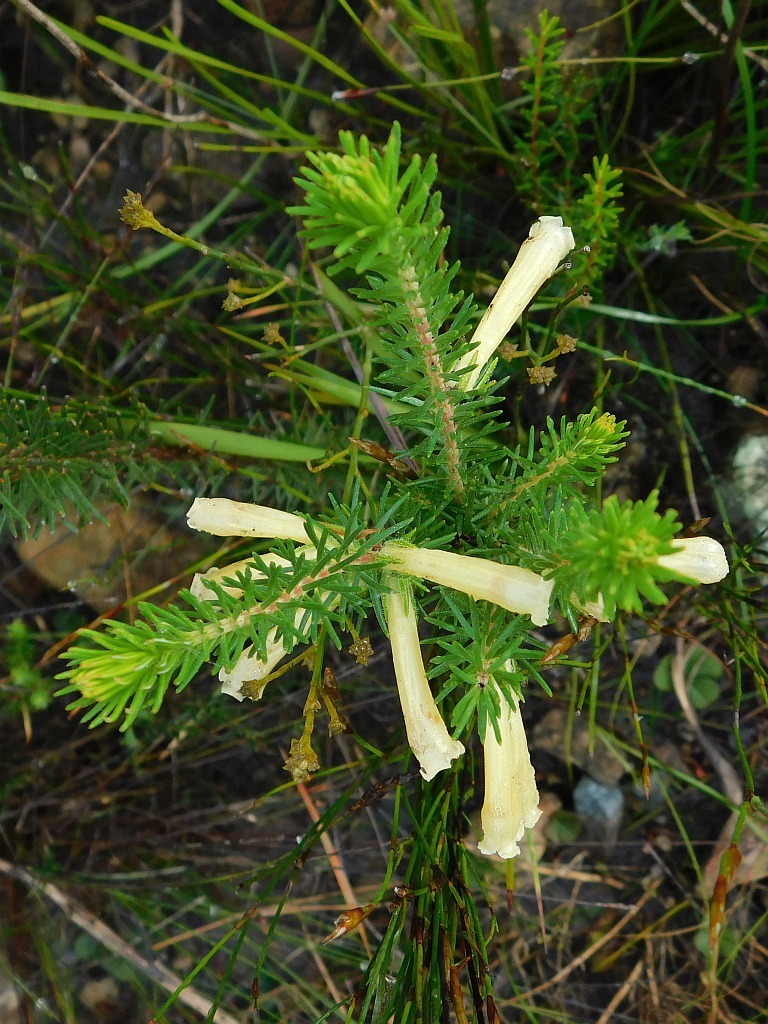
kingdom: Plantae
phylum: Tracheophyta
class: Magnoliopsida
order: Ericales
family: Ericaceae
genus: Erica
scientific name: Erica viscaria
